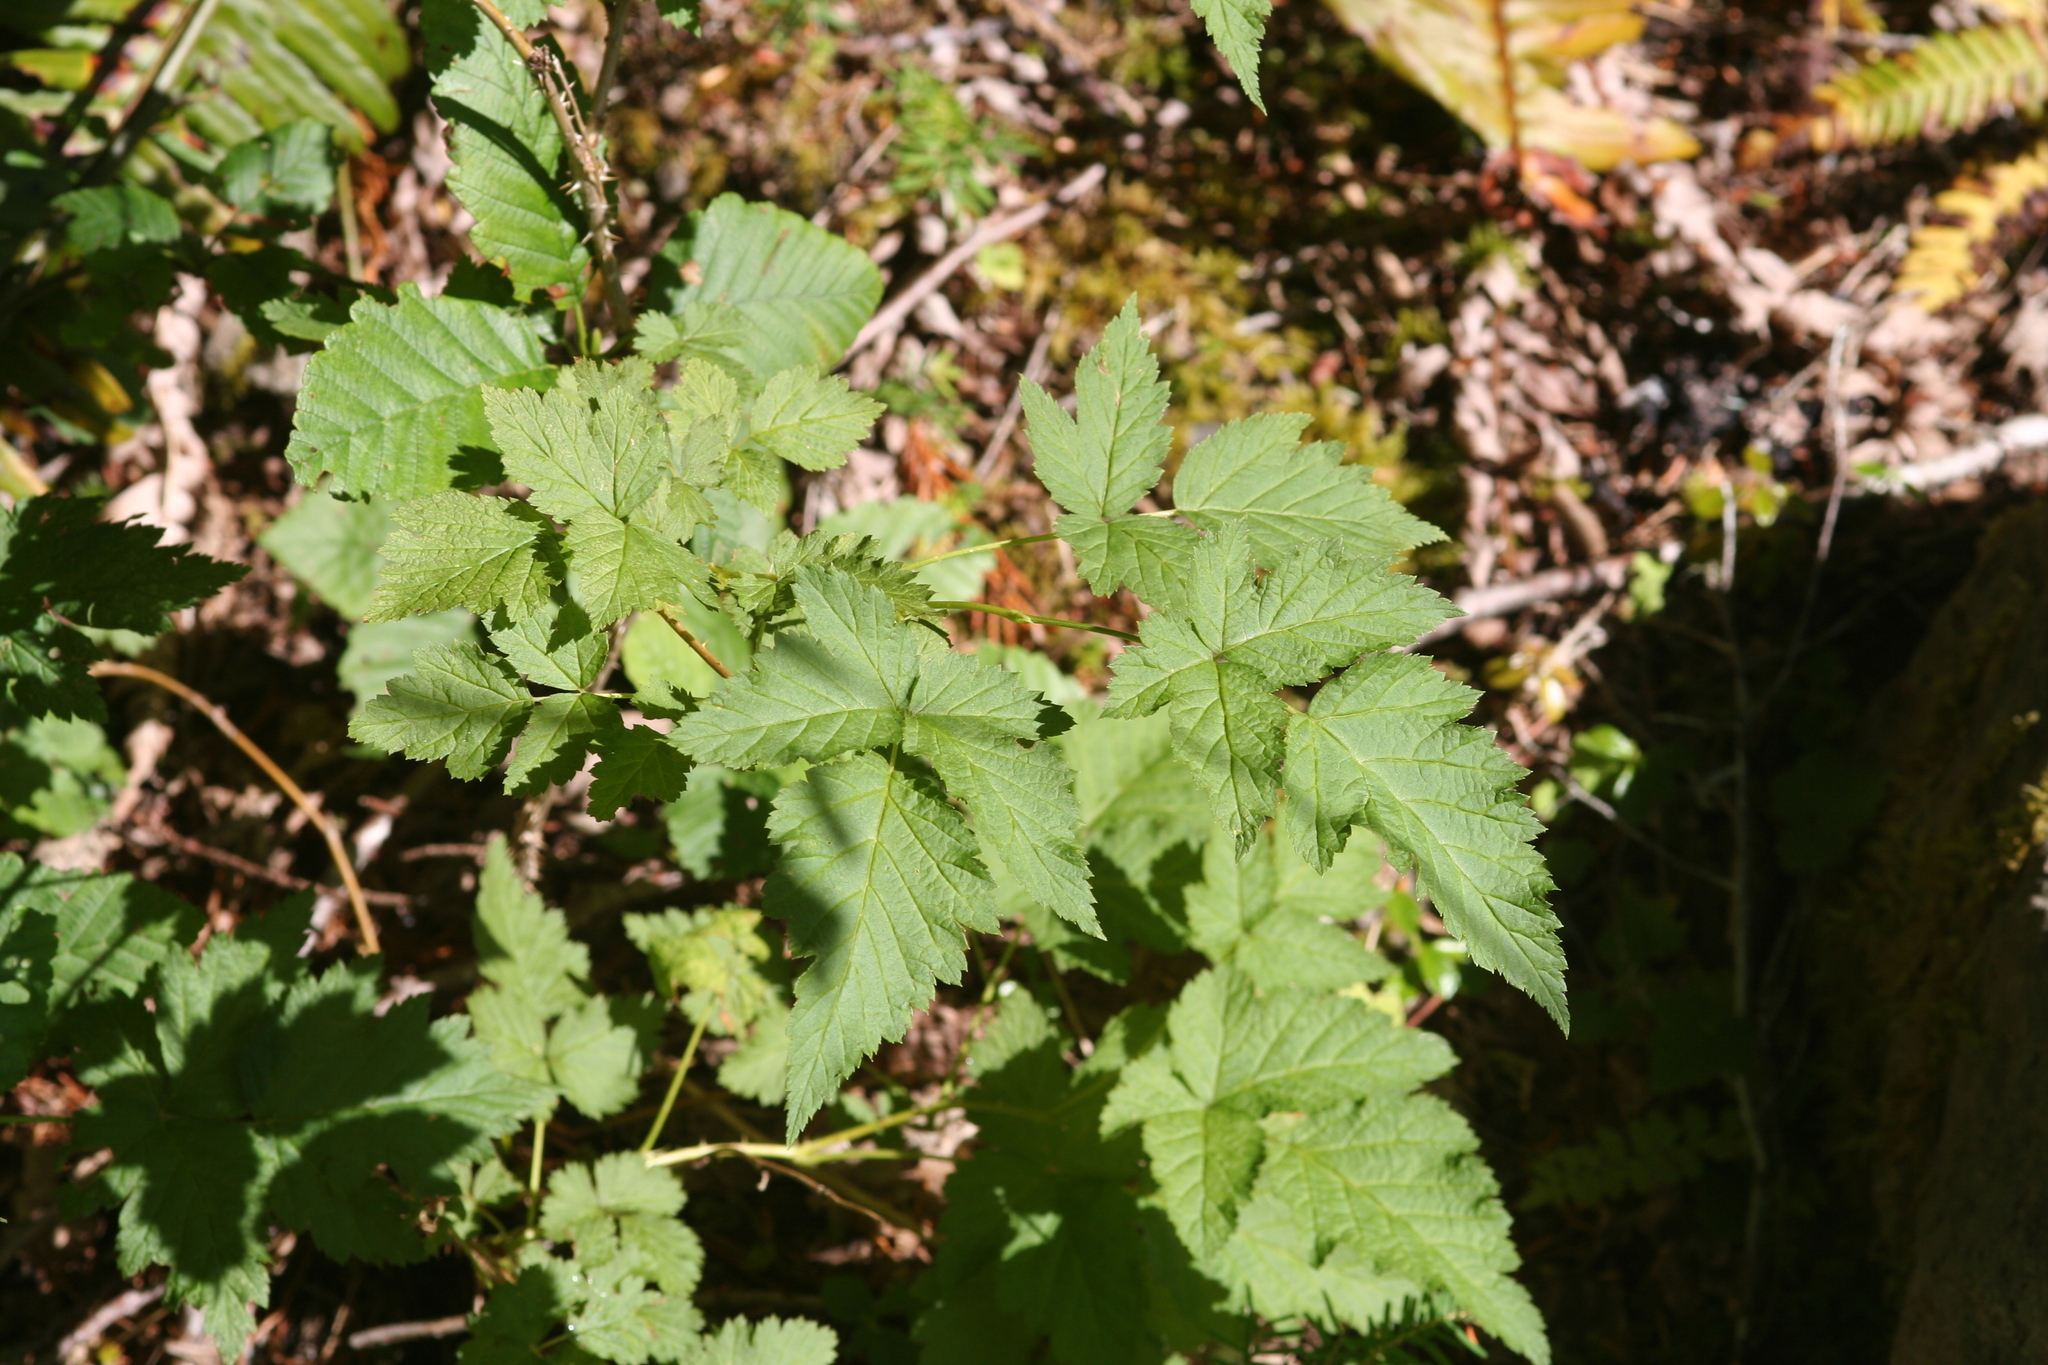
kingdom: Plantae
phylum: Tracheophyta
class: Magnoliopsida
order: Rosales
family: Rosaceae
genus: Rubus
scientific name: Rubus spectabilis
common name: Salmonberry
